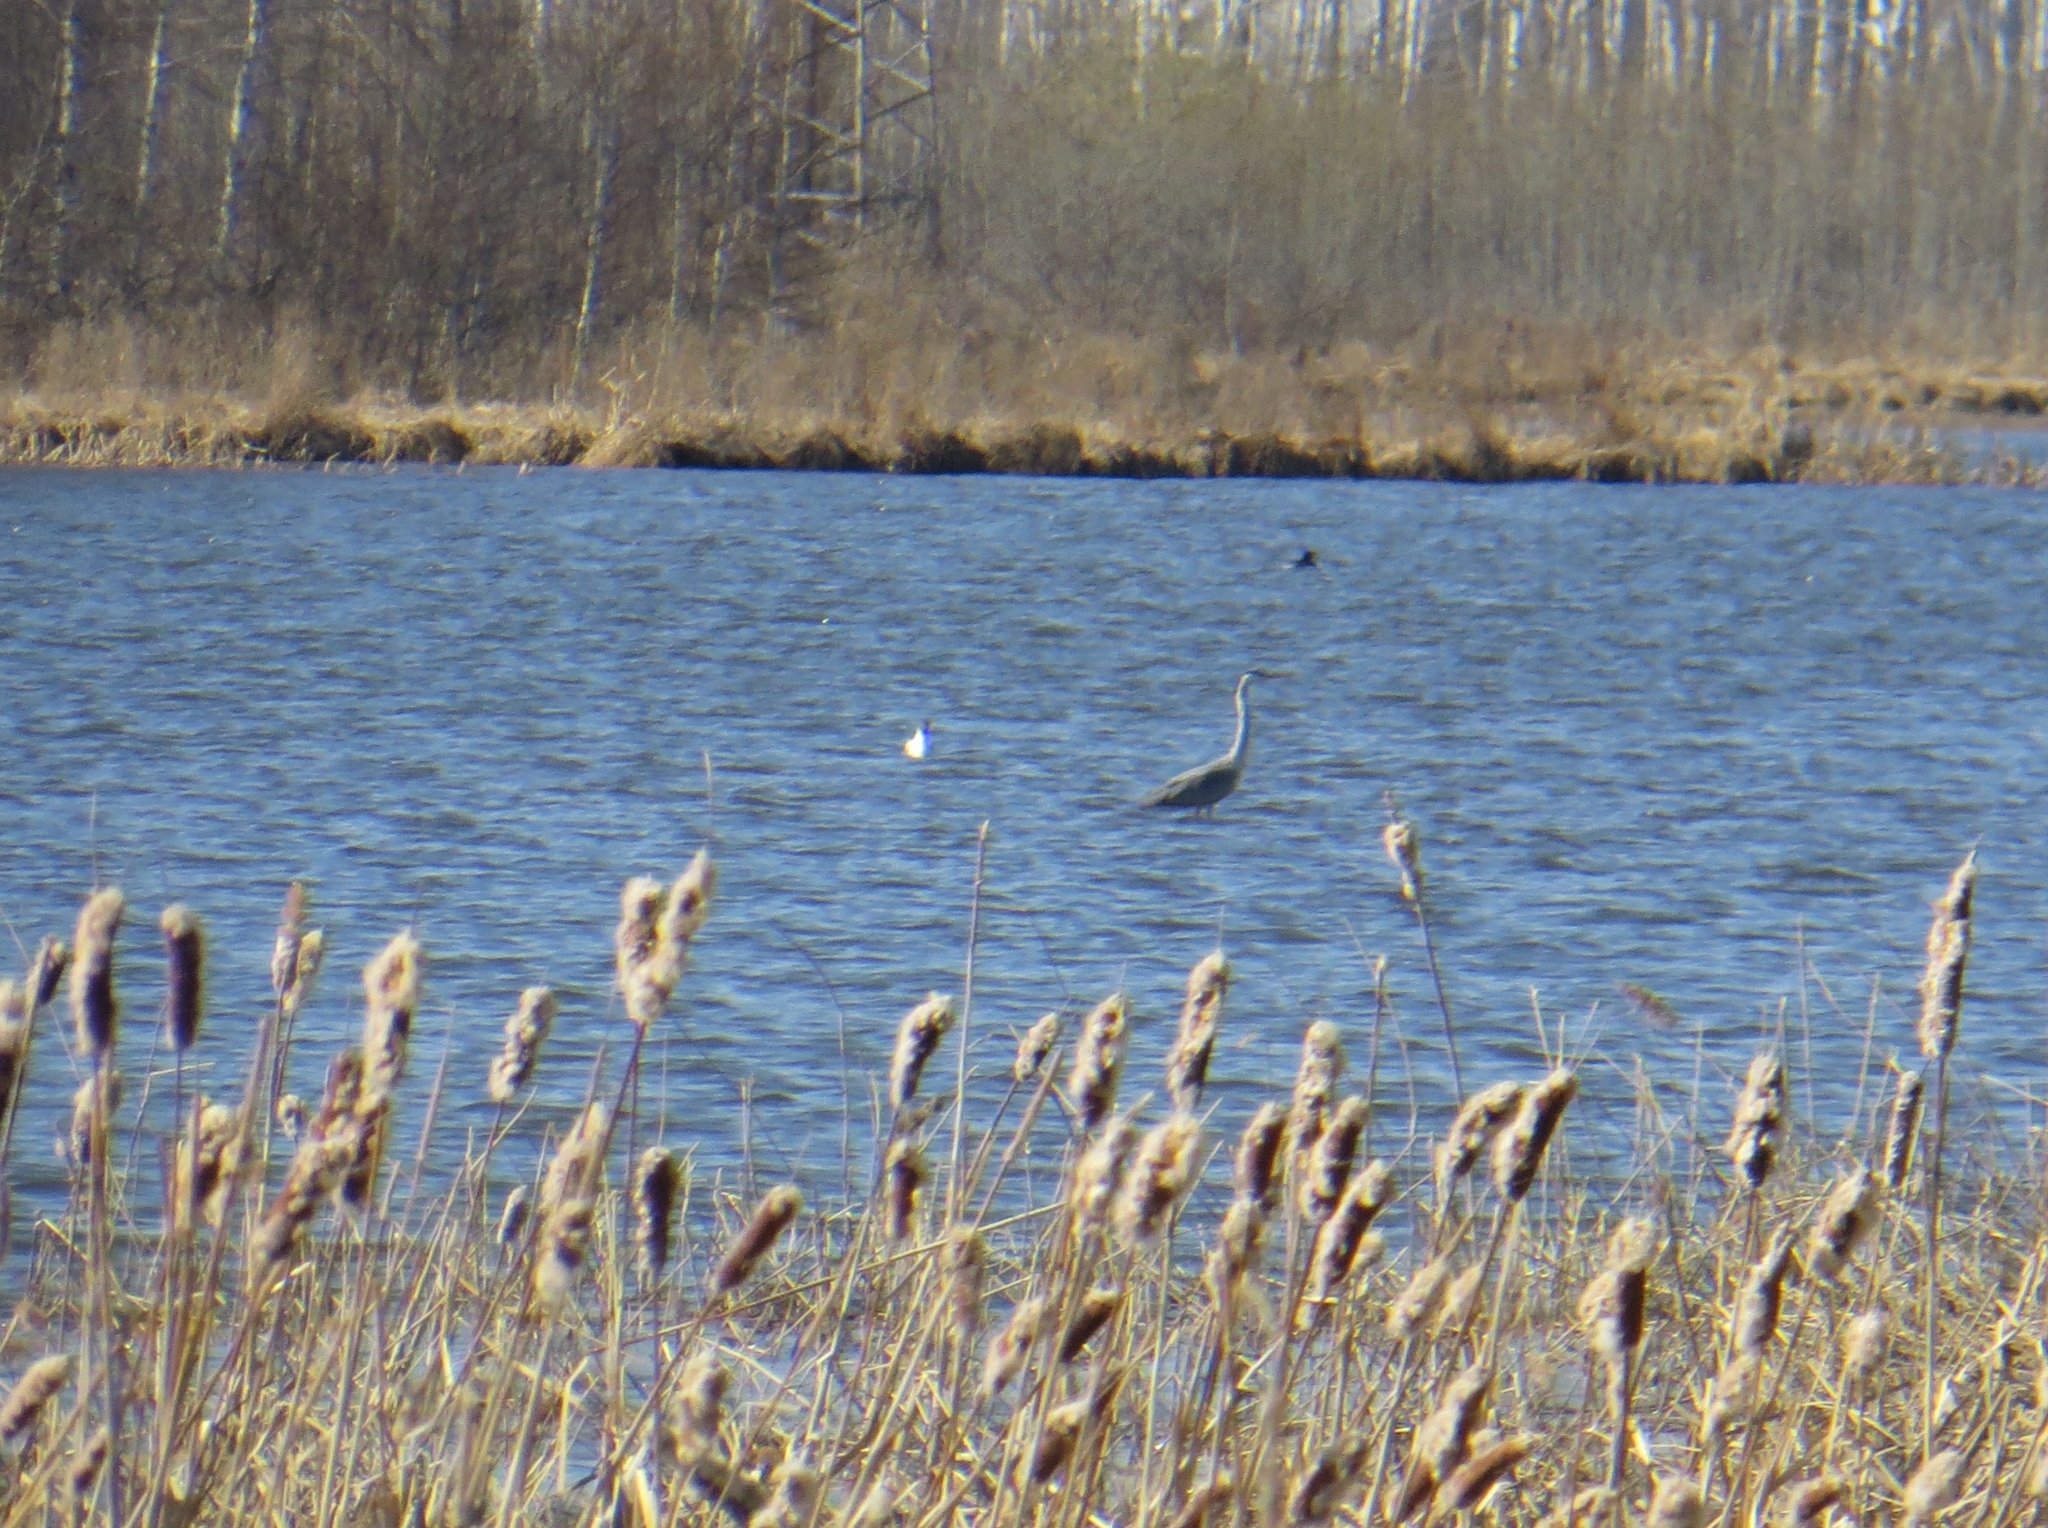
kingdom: Animalia
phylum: Chordata
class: Aves
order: Pelecaniformes
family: Ardeidae
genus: Ardea
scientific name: Ardea cinerea
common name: Grey heron
